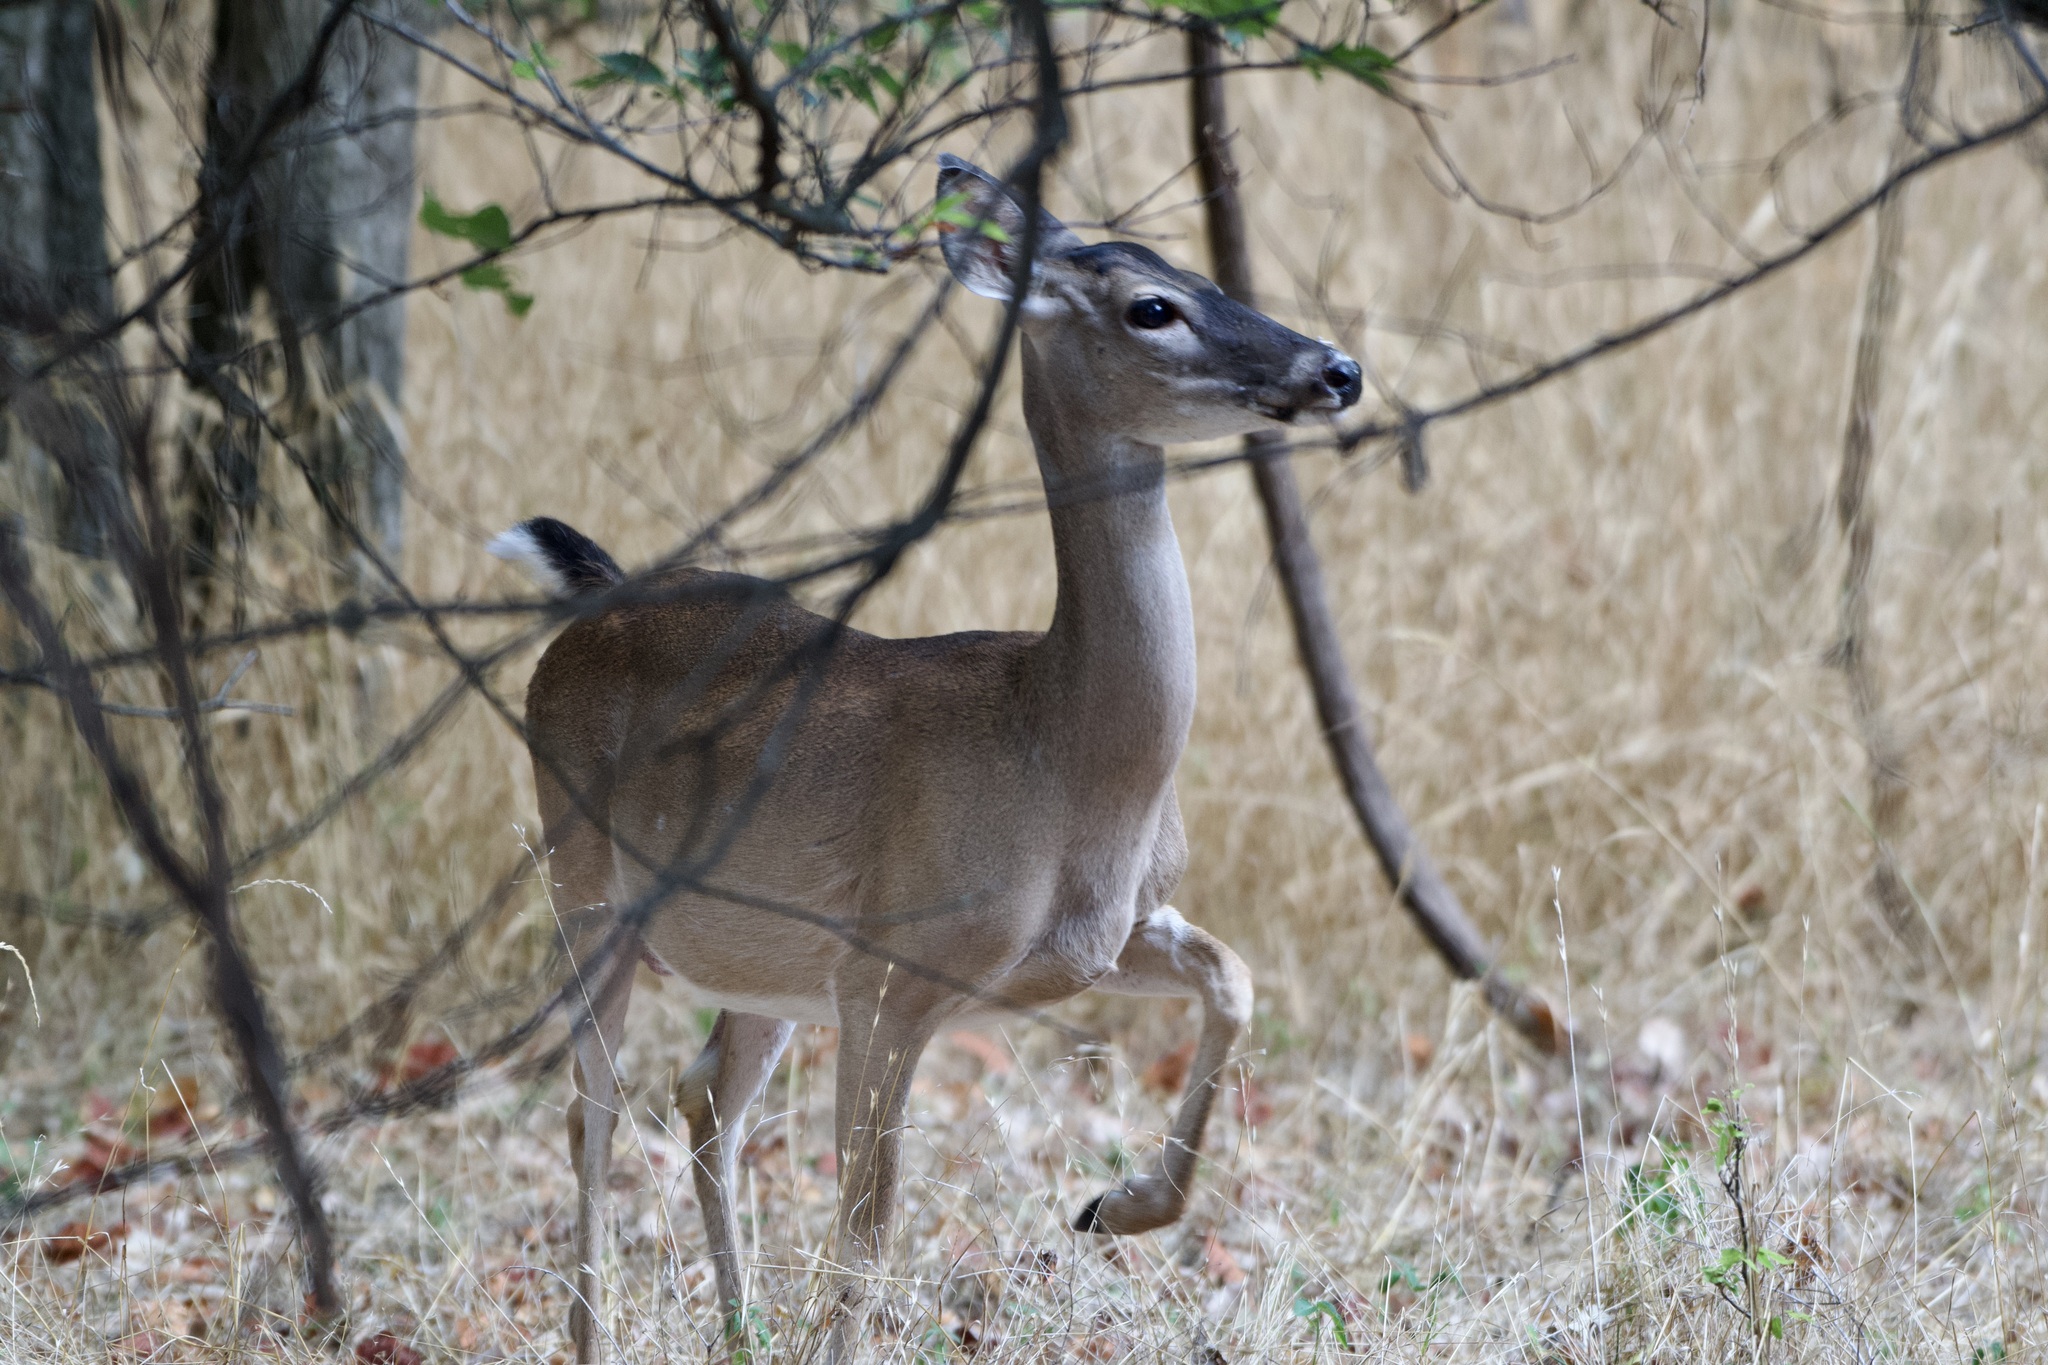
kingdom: Animalia
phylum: Chordata
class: Mammalia
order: Artiodactyla
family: Cervidae
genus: Odocoileus
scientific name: Odocoileus virginianus
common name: White-tailed deer
